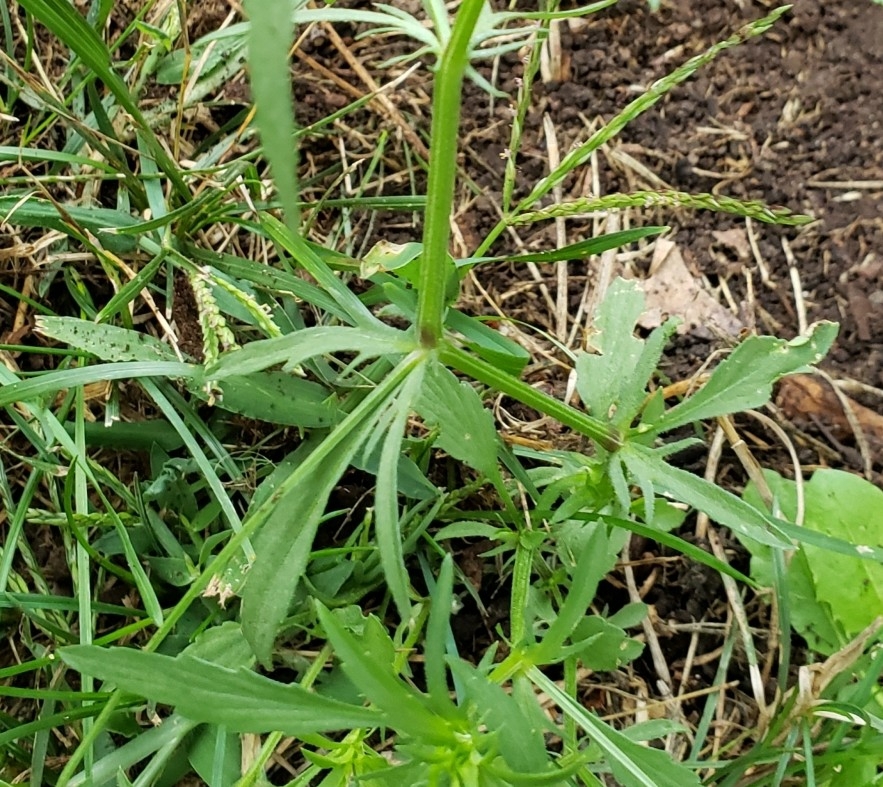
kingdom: Plantae
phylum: Tracheophyta
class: Magnoliopsida
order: Malpighiales
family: Violaceae
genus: Viola
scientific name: Viola arvensis
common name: Field pansy
